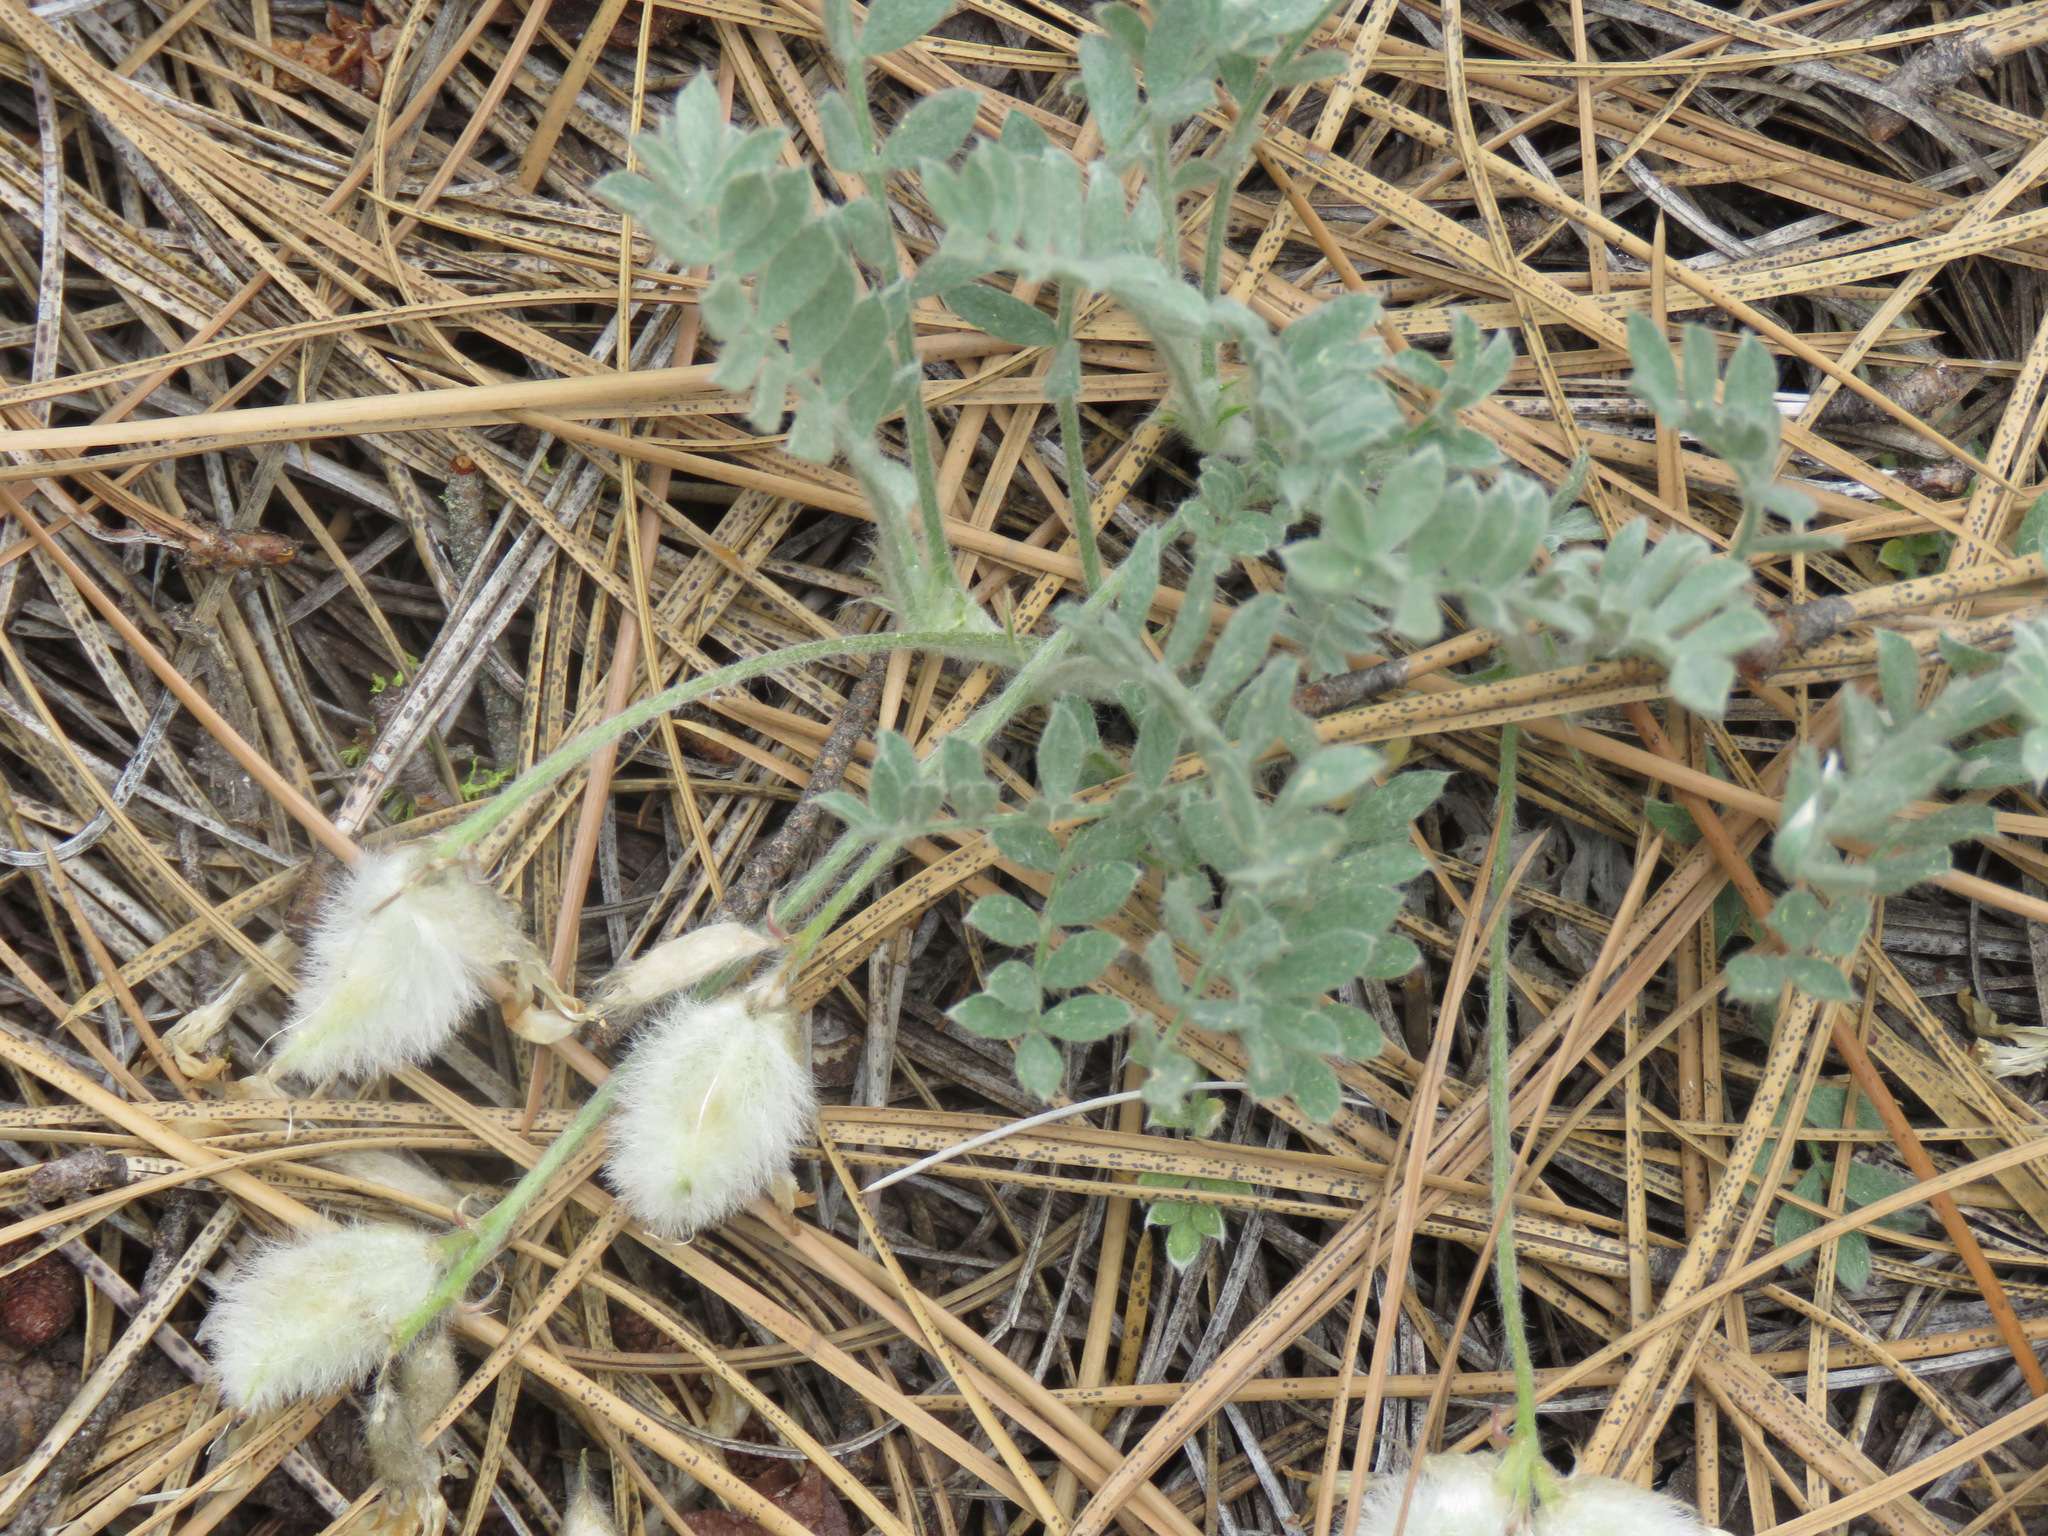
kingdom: Plantae
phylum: Tracheophyta
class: Magnoliopsida
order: Fabales
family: Fabaceae
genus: Astragalus
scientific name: Astragalus purshii
